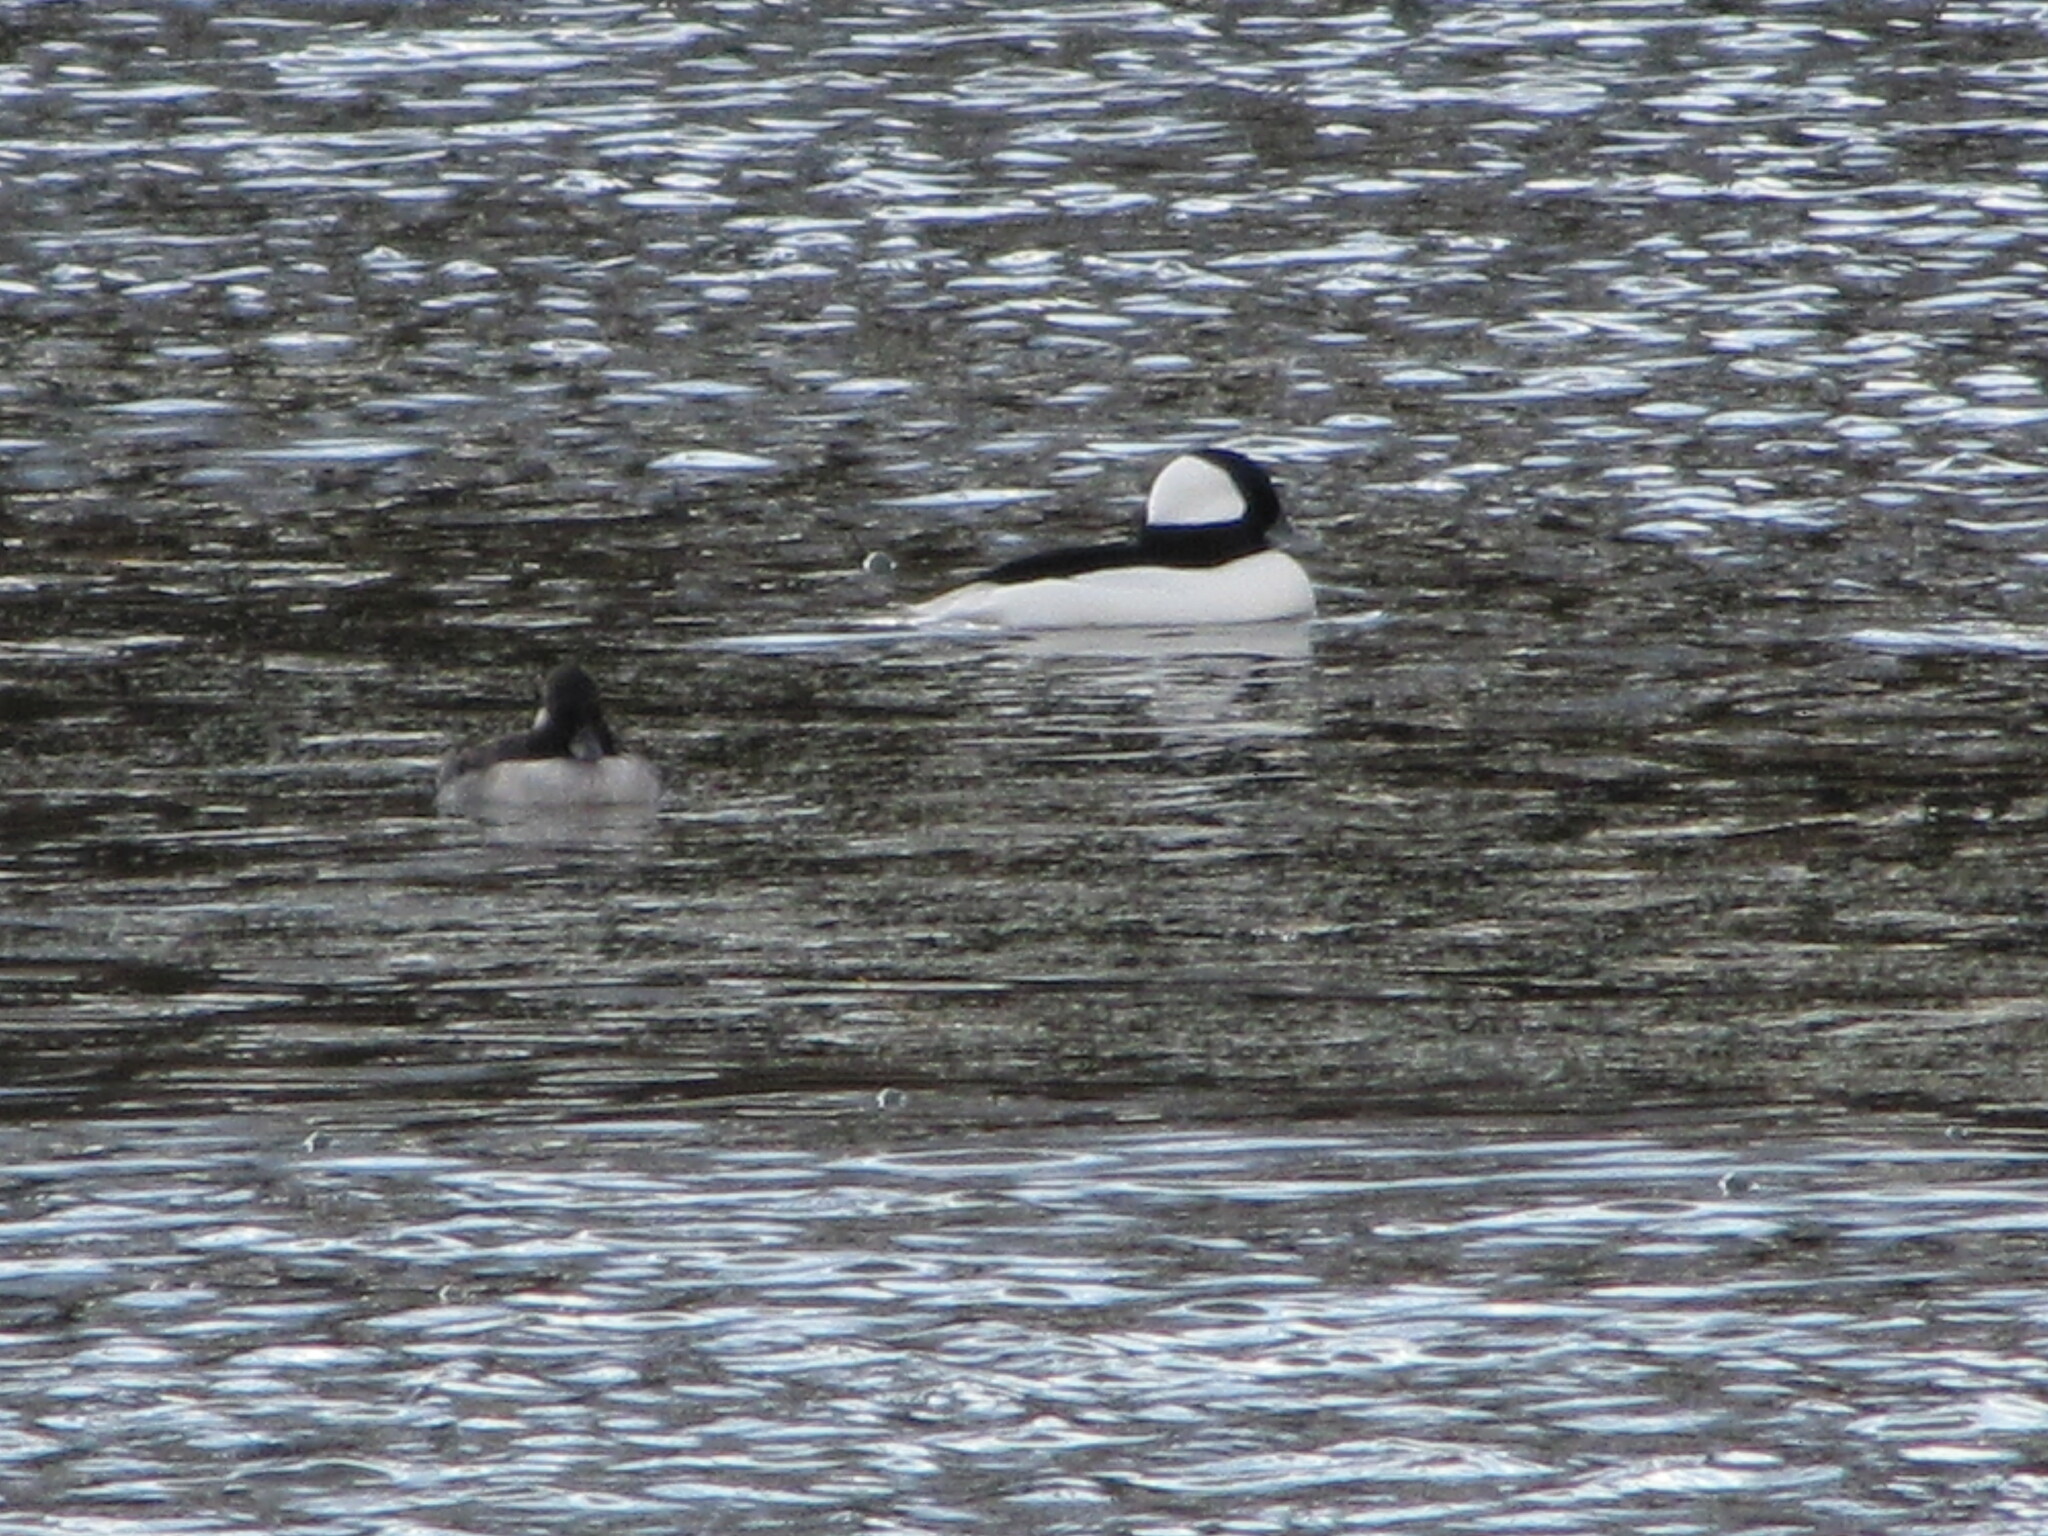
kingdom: Animalia
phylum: Chordata
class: Aves
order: Anseriformes
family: Anatidae
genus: Bucephala
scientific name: Bucephala albeola
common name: Bufflehead
